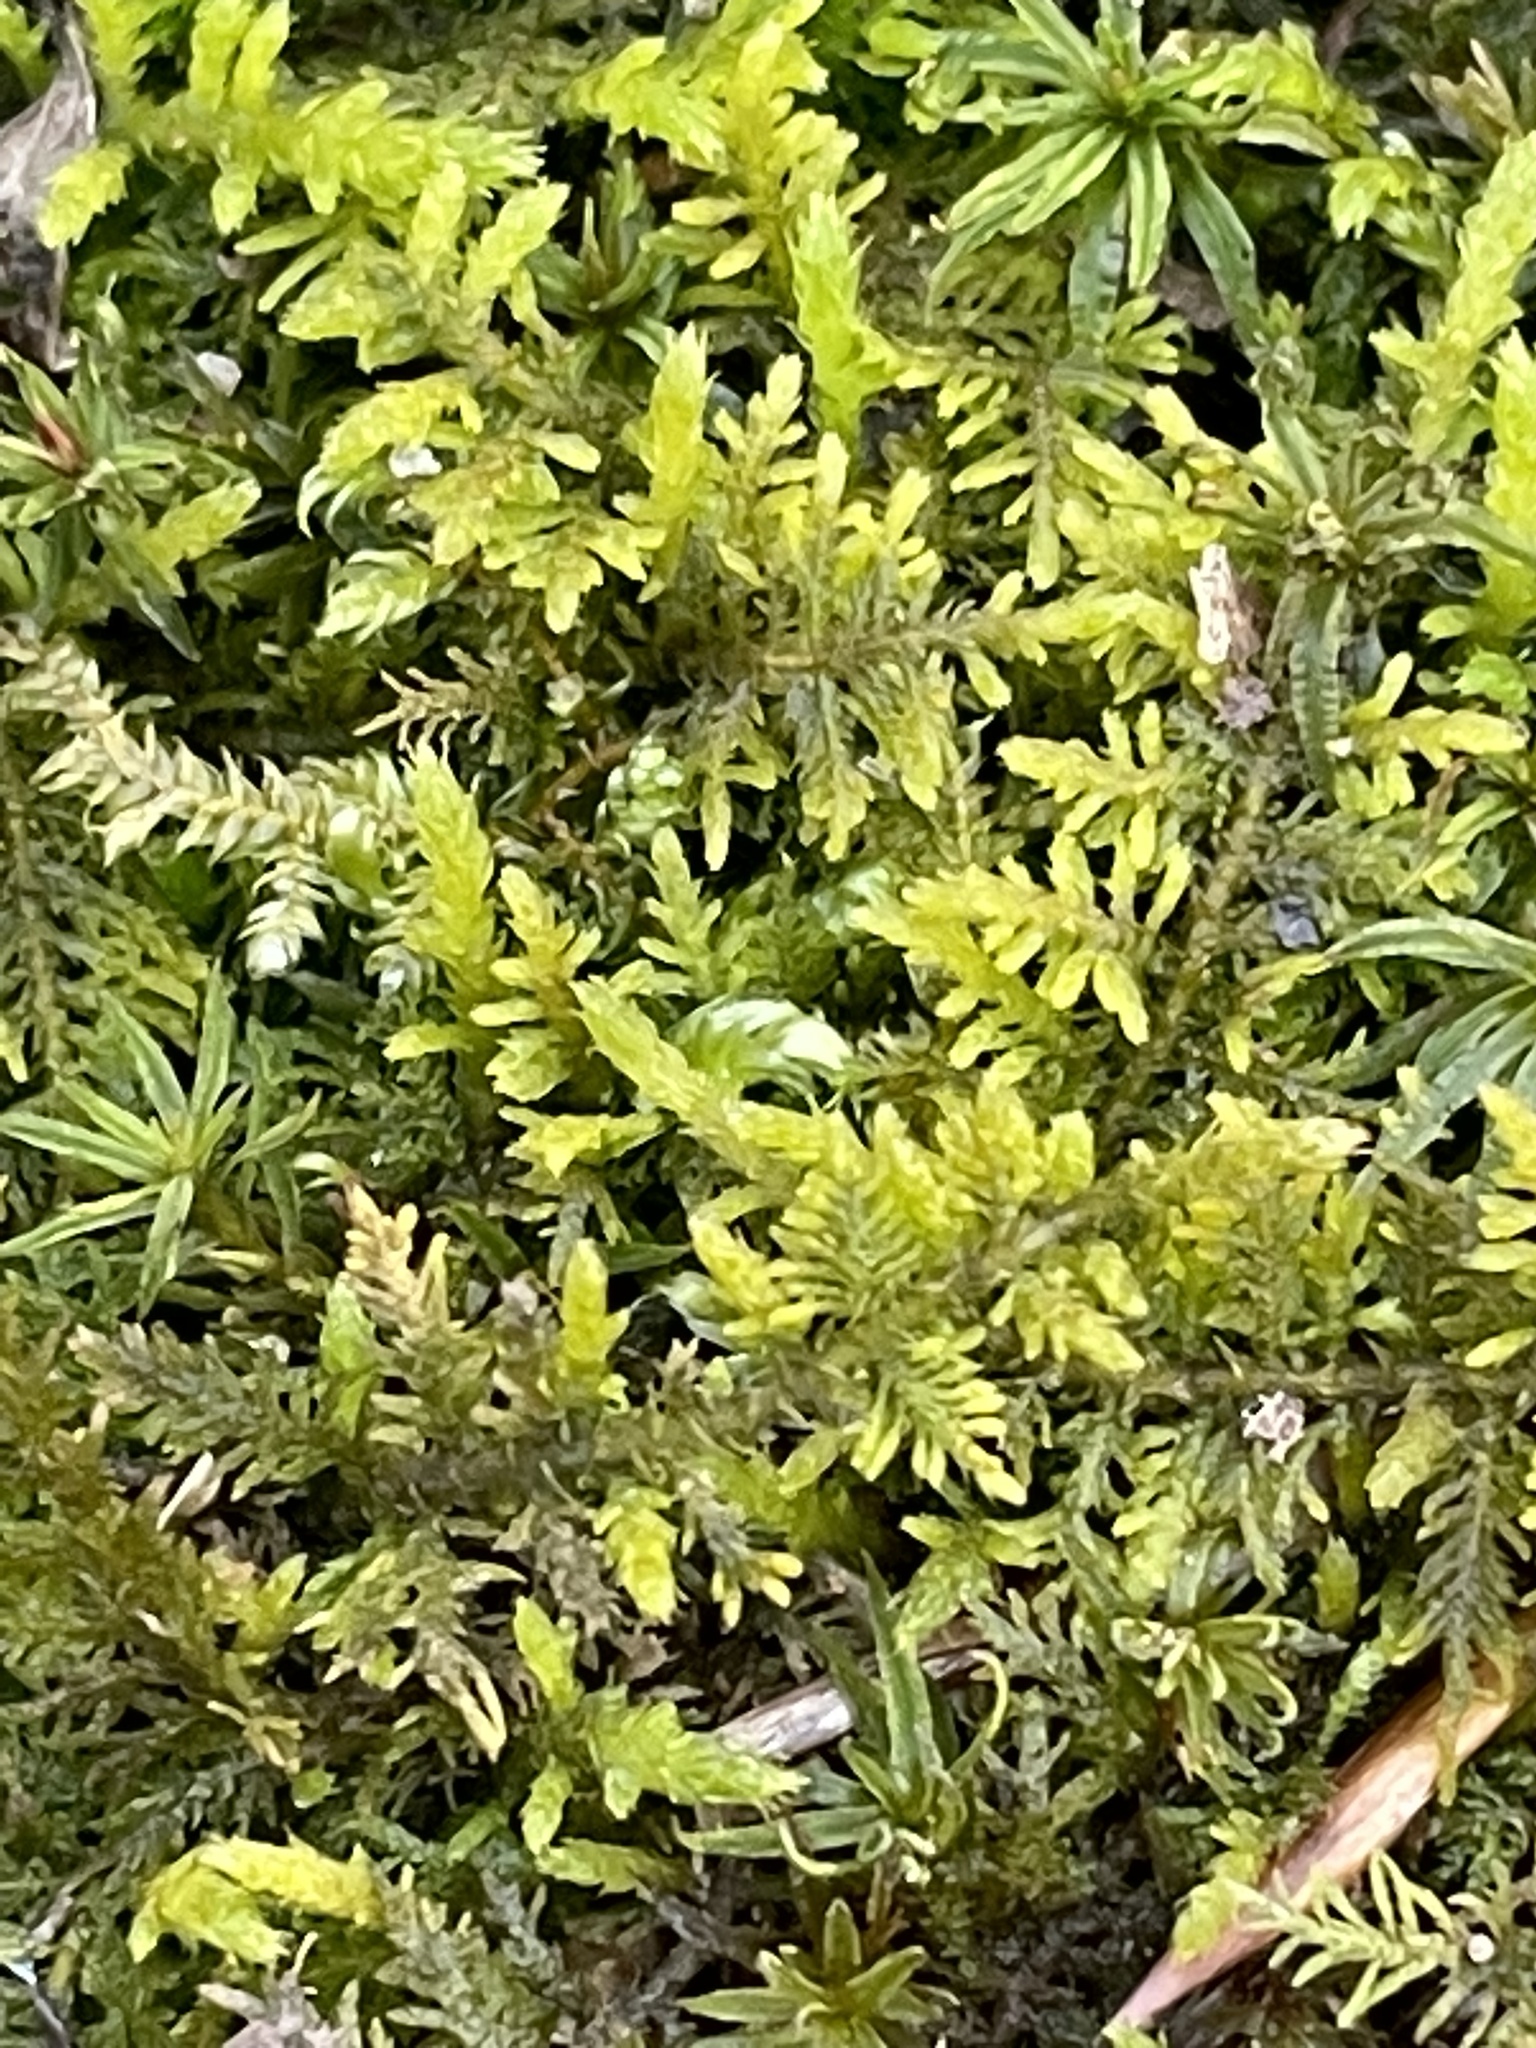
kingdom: Plantae
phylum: Bryophyta
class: Bryopsida
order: Hypnales
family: Thuidiaceae
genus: Thuidium
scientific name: Thuidium delicatulum
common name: Delicate fern moss
